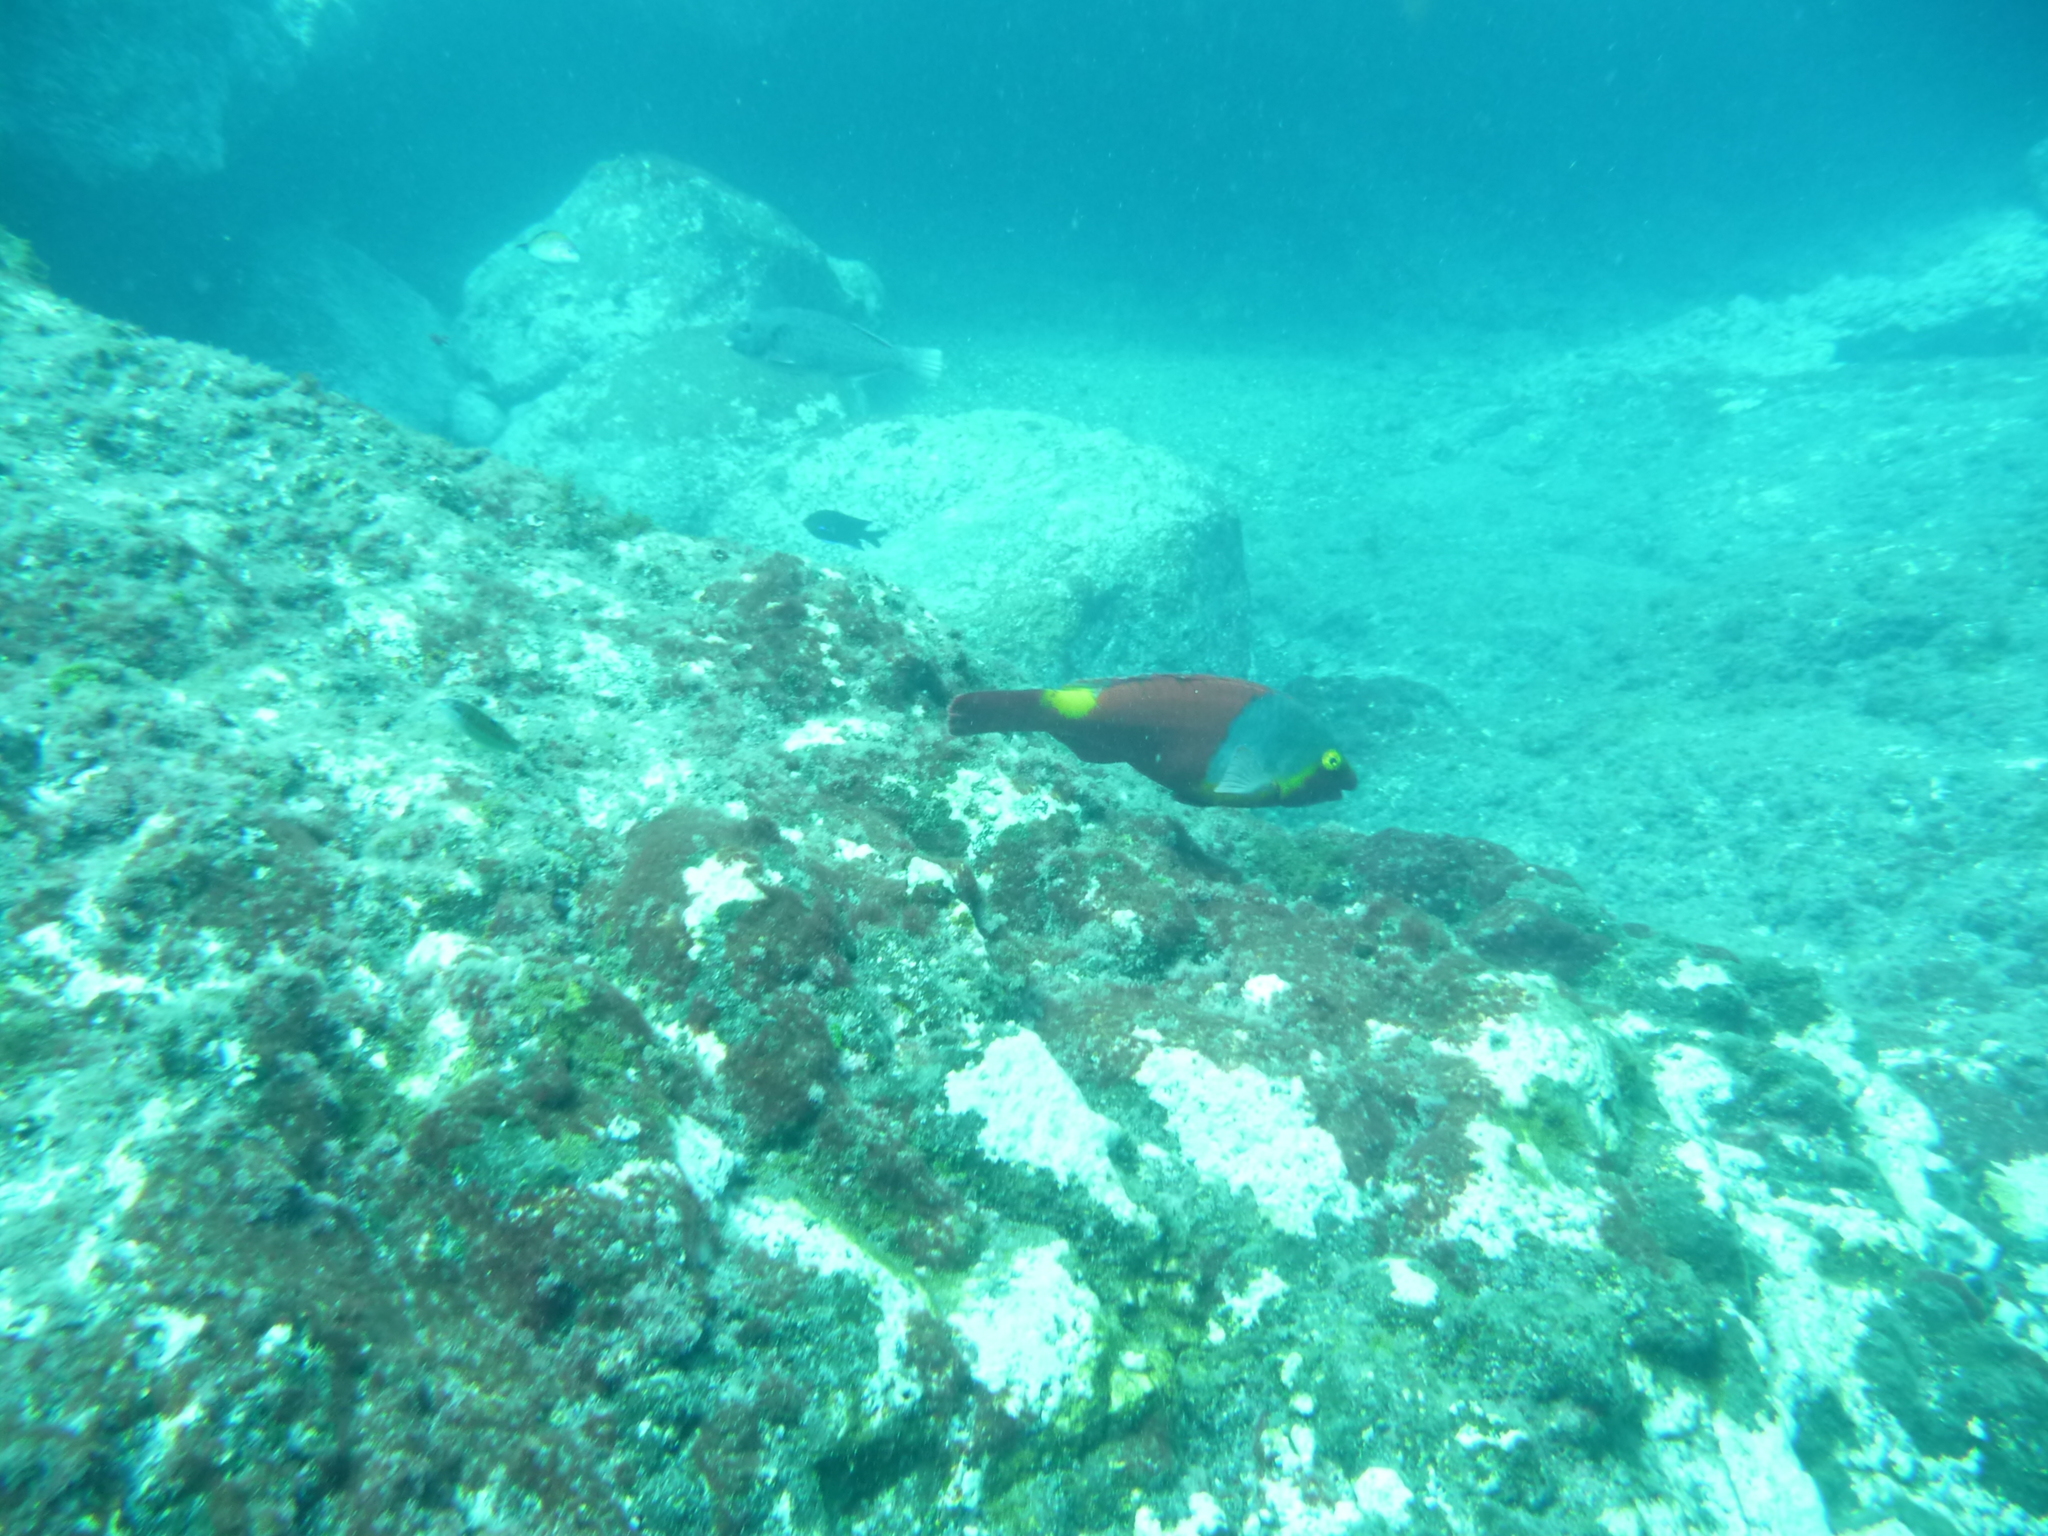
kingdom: Animalia
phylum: Chordata
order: Perciformes
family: Scaridae
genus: Sparisoma
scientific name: Sparisoma cretense
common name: Parrotfish
